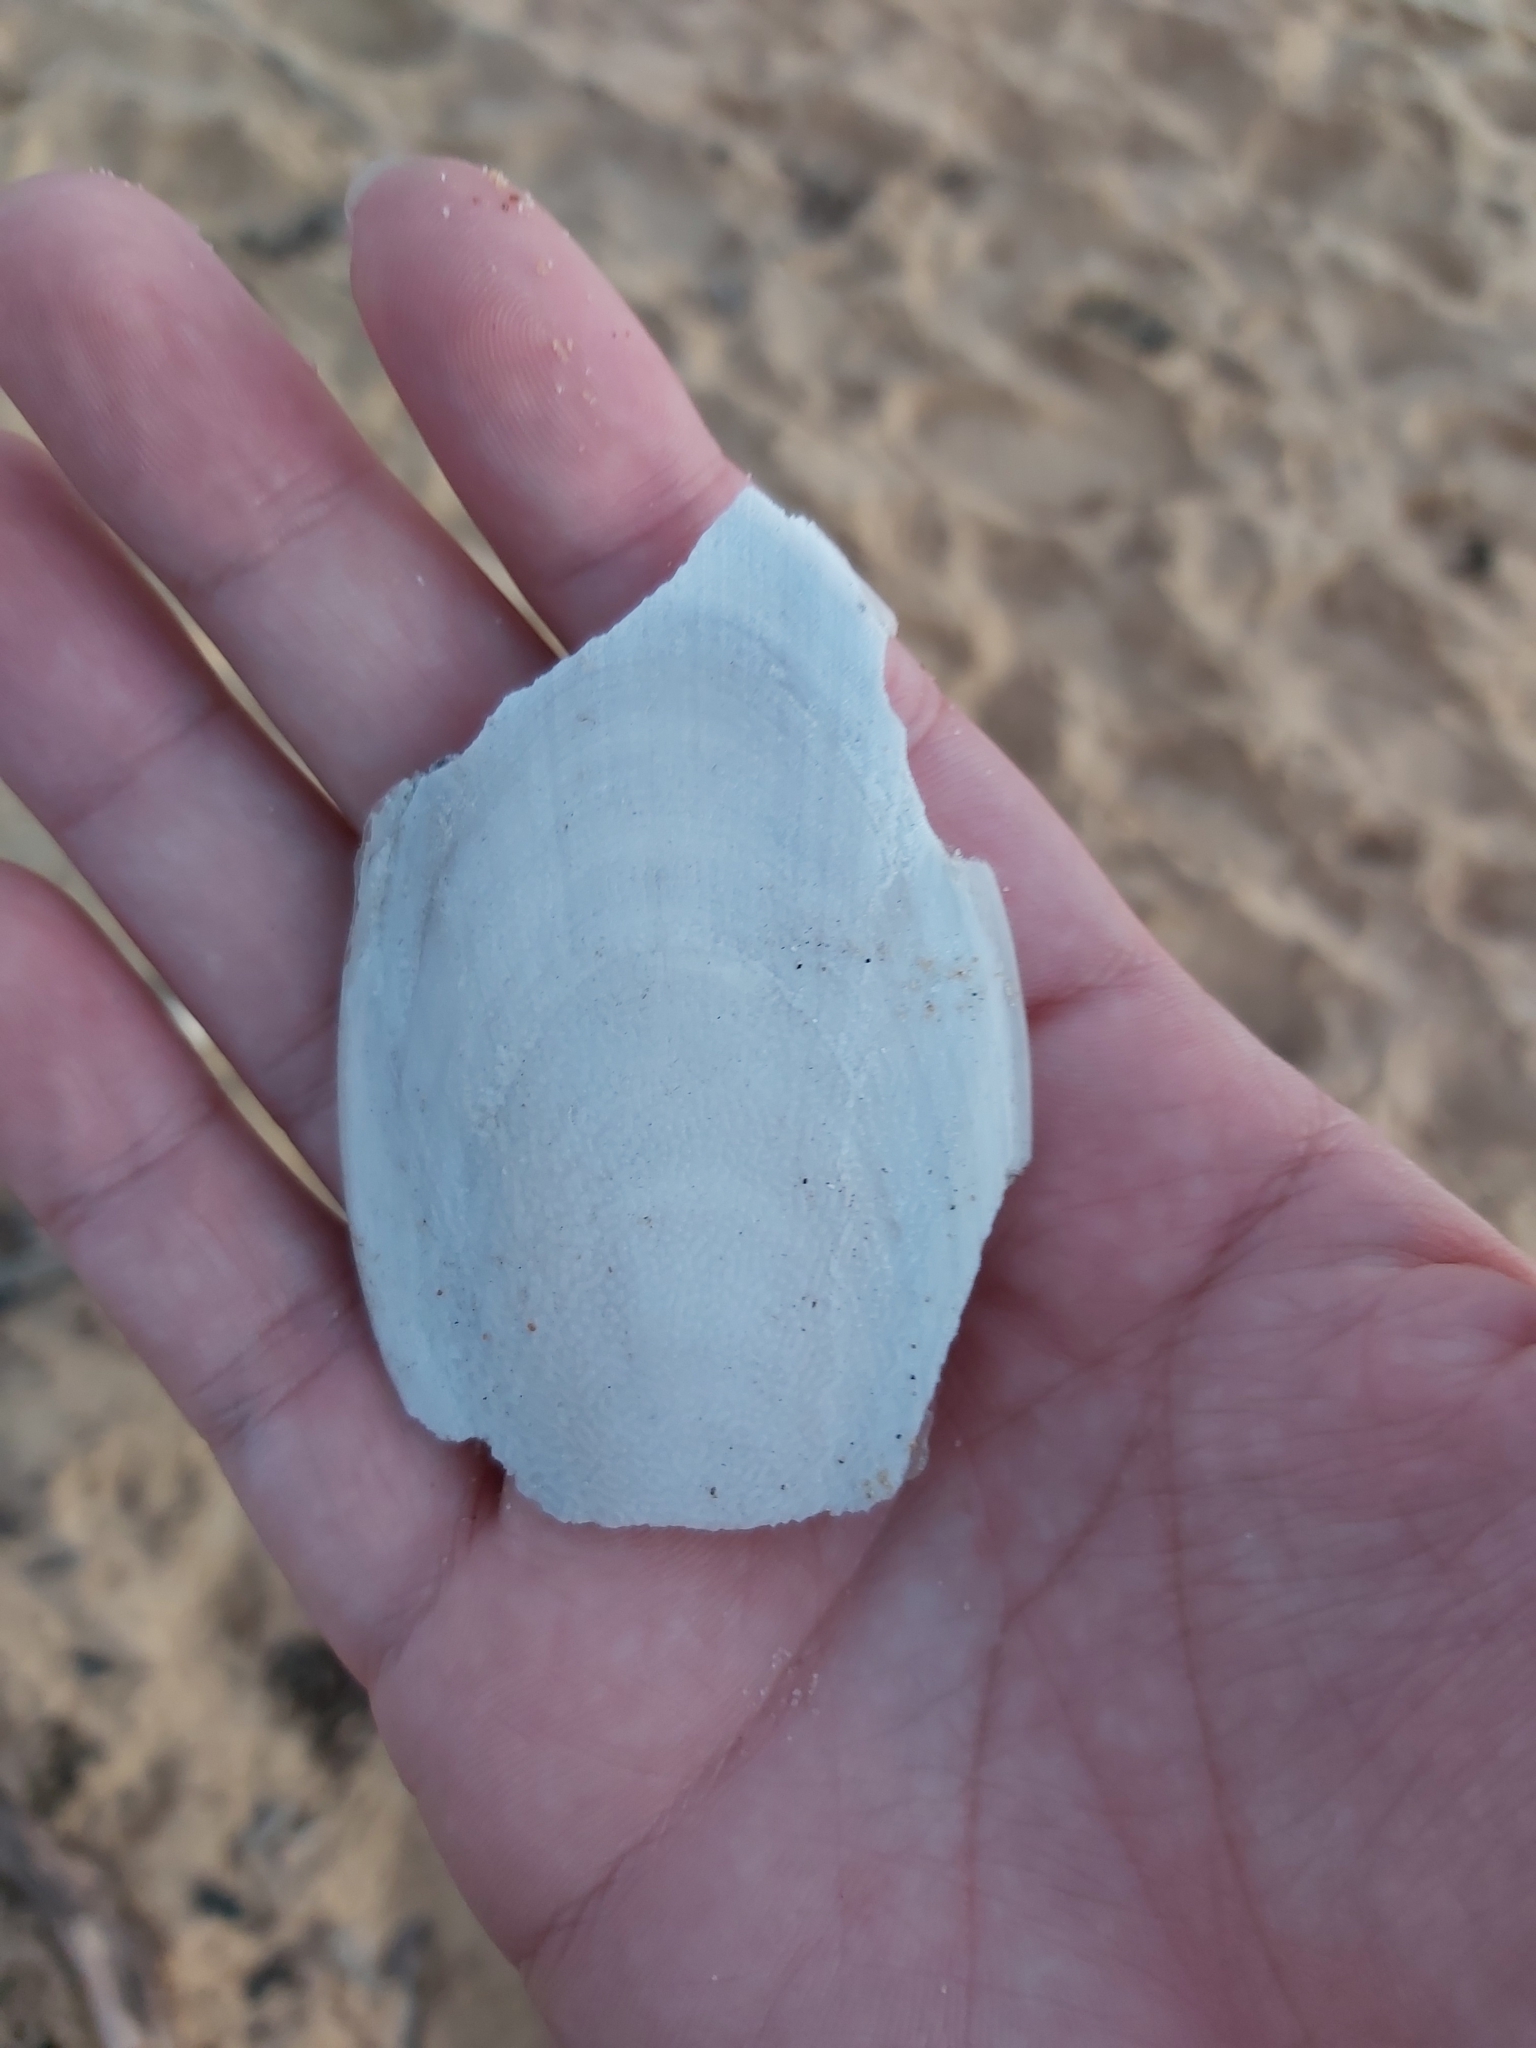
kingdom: Animalia
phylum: Mollusca
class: Cephalopoda
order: Sepiida
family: Sepiidae
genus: Ascarosepion
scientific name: Ascarosepion mestus
